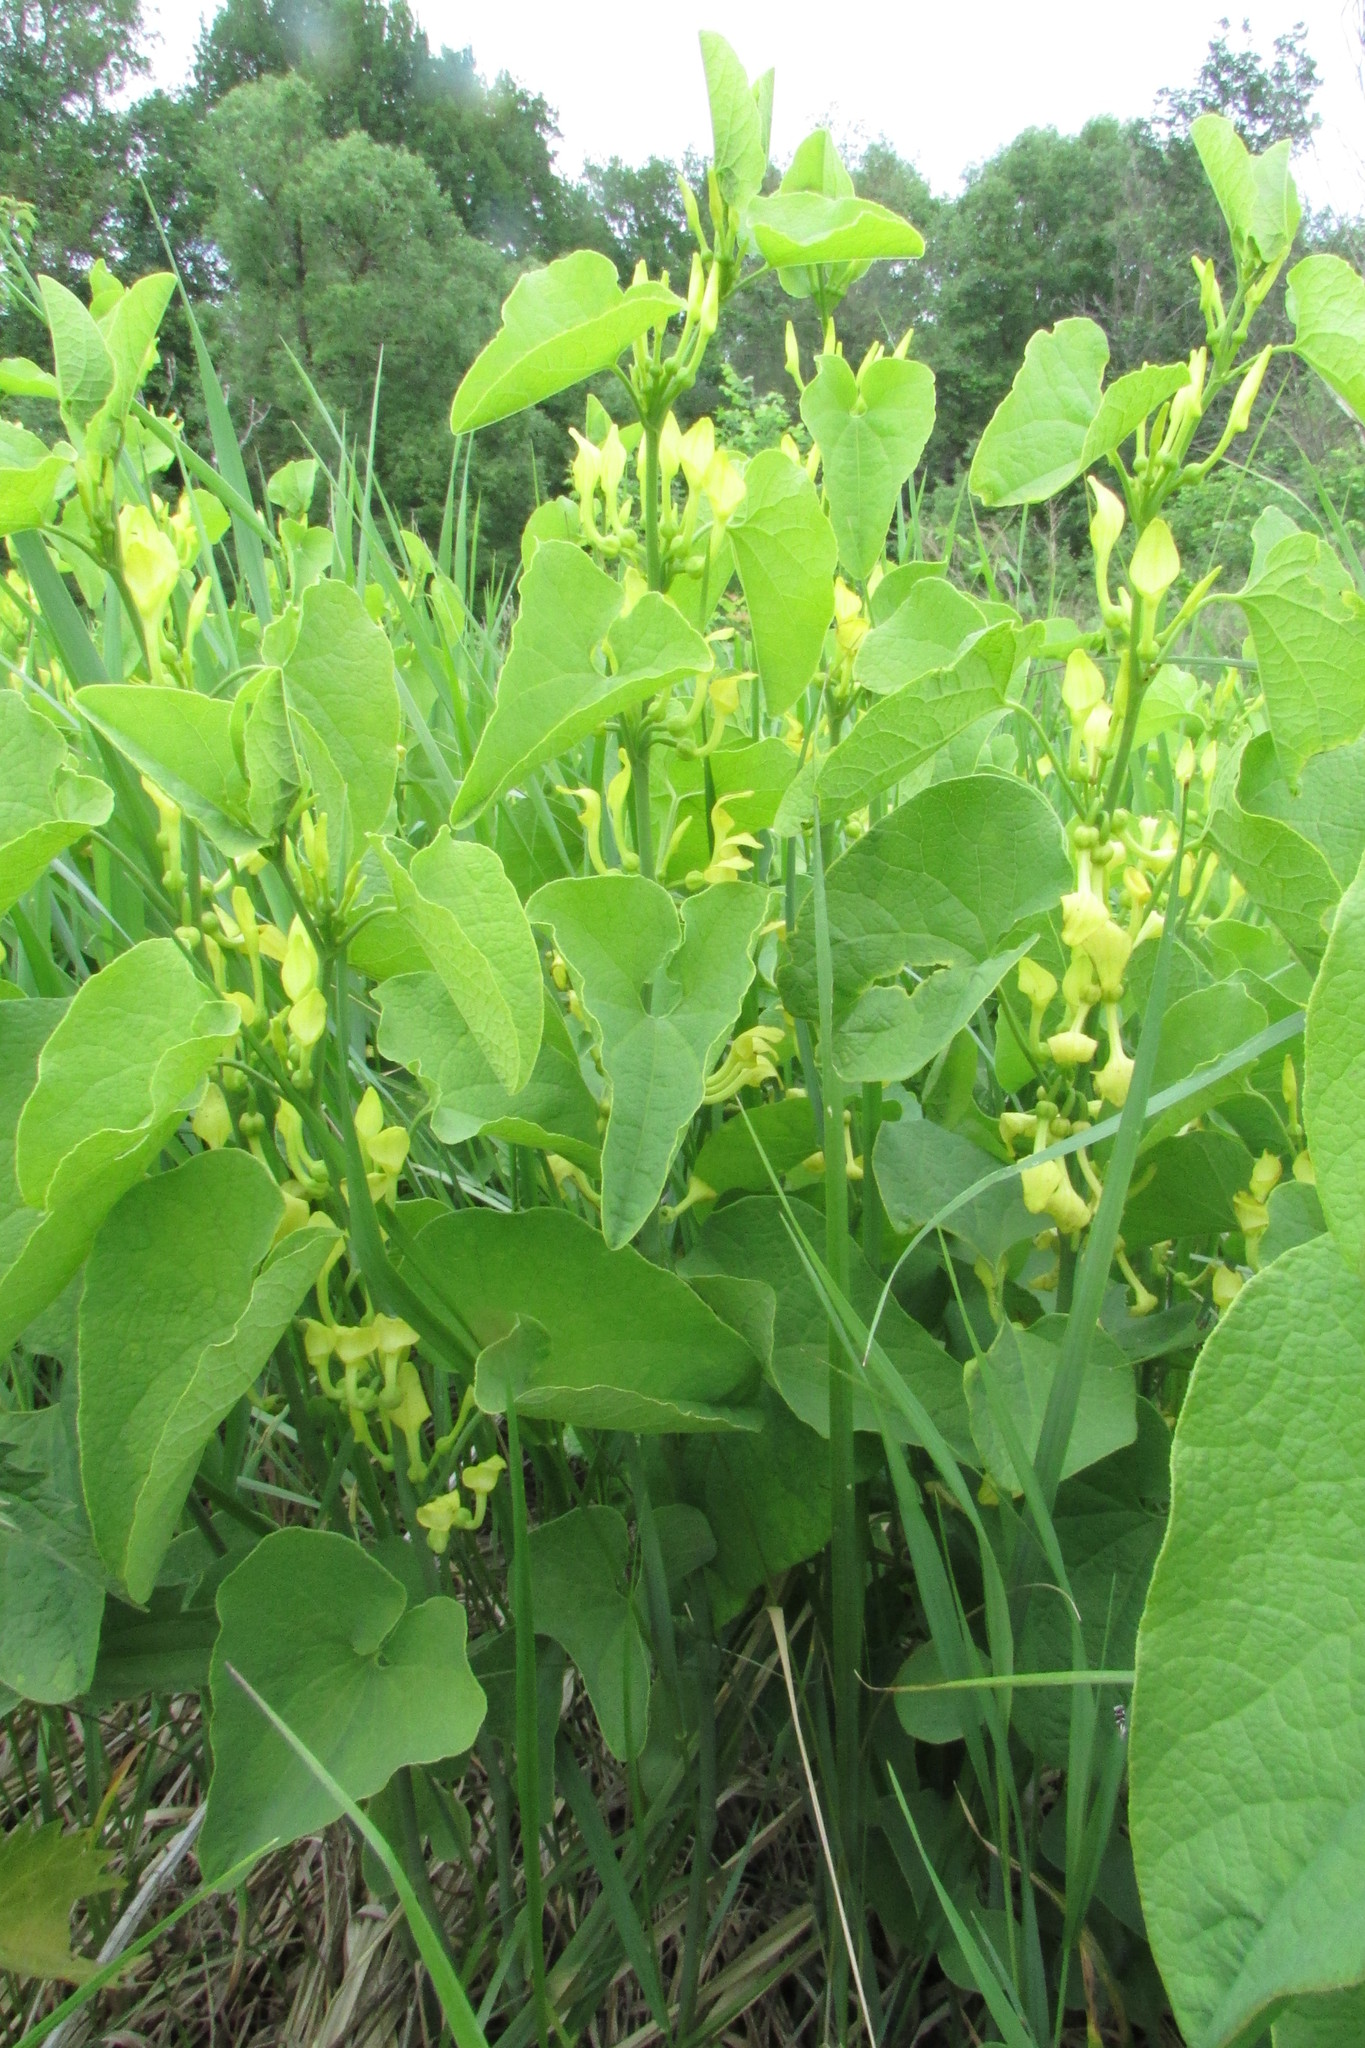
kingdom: Plantae
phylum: Tracheophyta
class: Magnoliopsida
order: Piperales
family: Aristolochiaceae
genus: Aristolochia
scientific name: Aristolochia clematitis
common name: Birthwort
